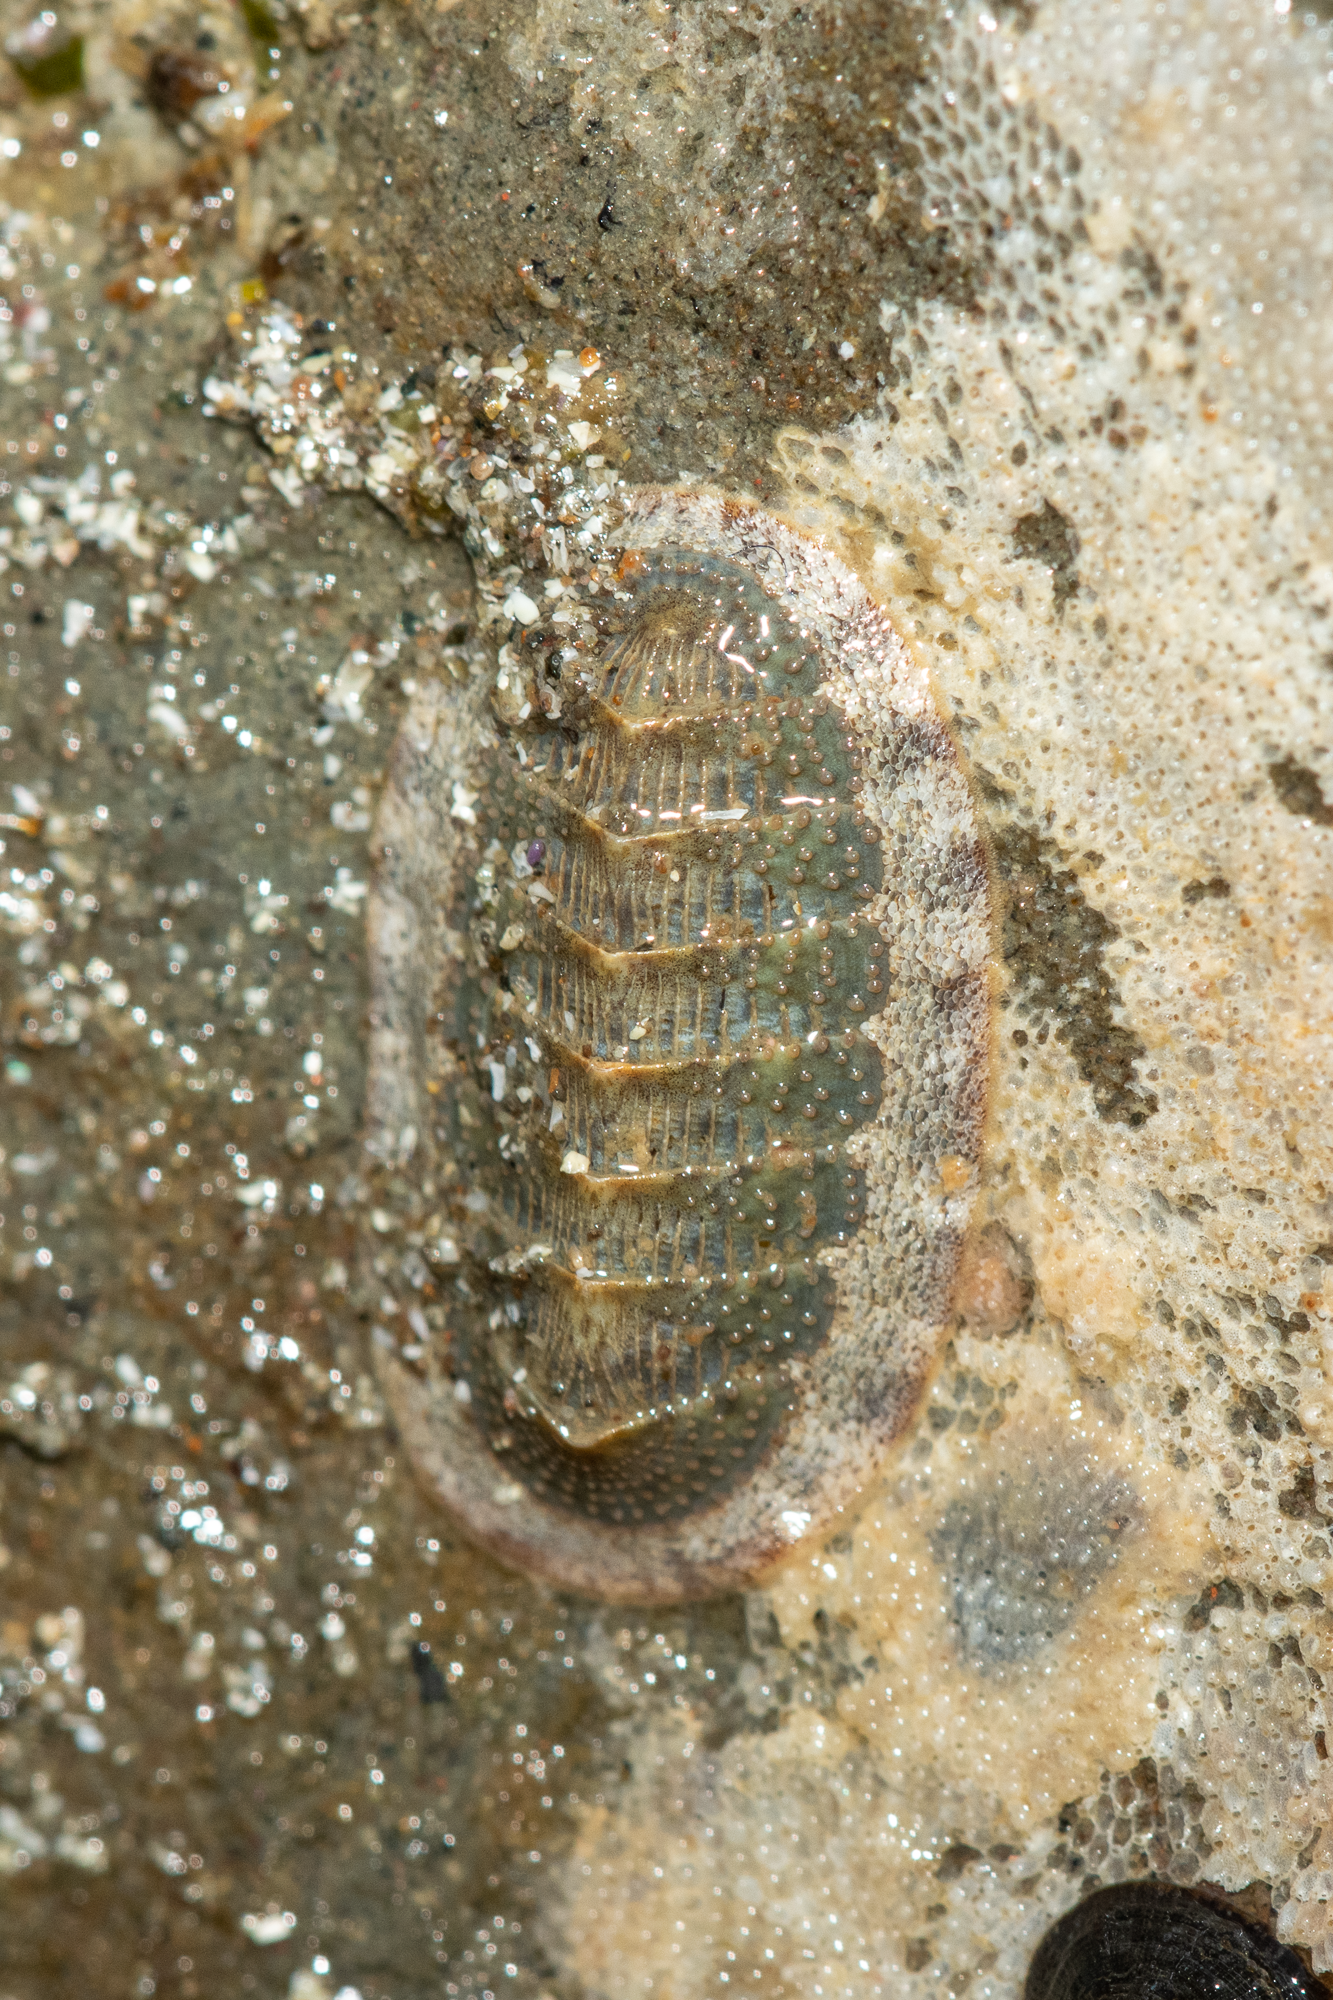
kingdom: Animalia
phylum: Mollusca
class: Polyplacophora
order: Chitonida
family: Ischnochitonidae
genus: Lepidozona
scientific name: Lepidozona cooperi
